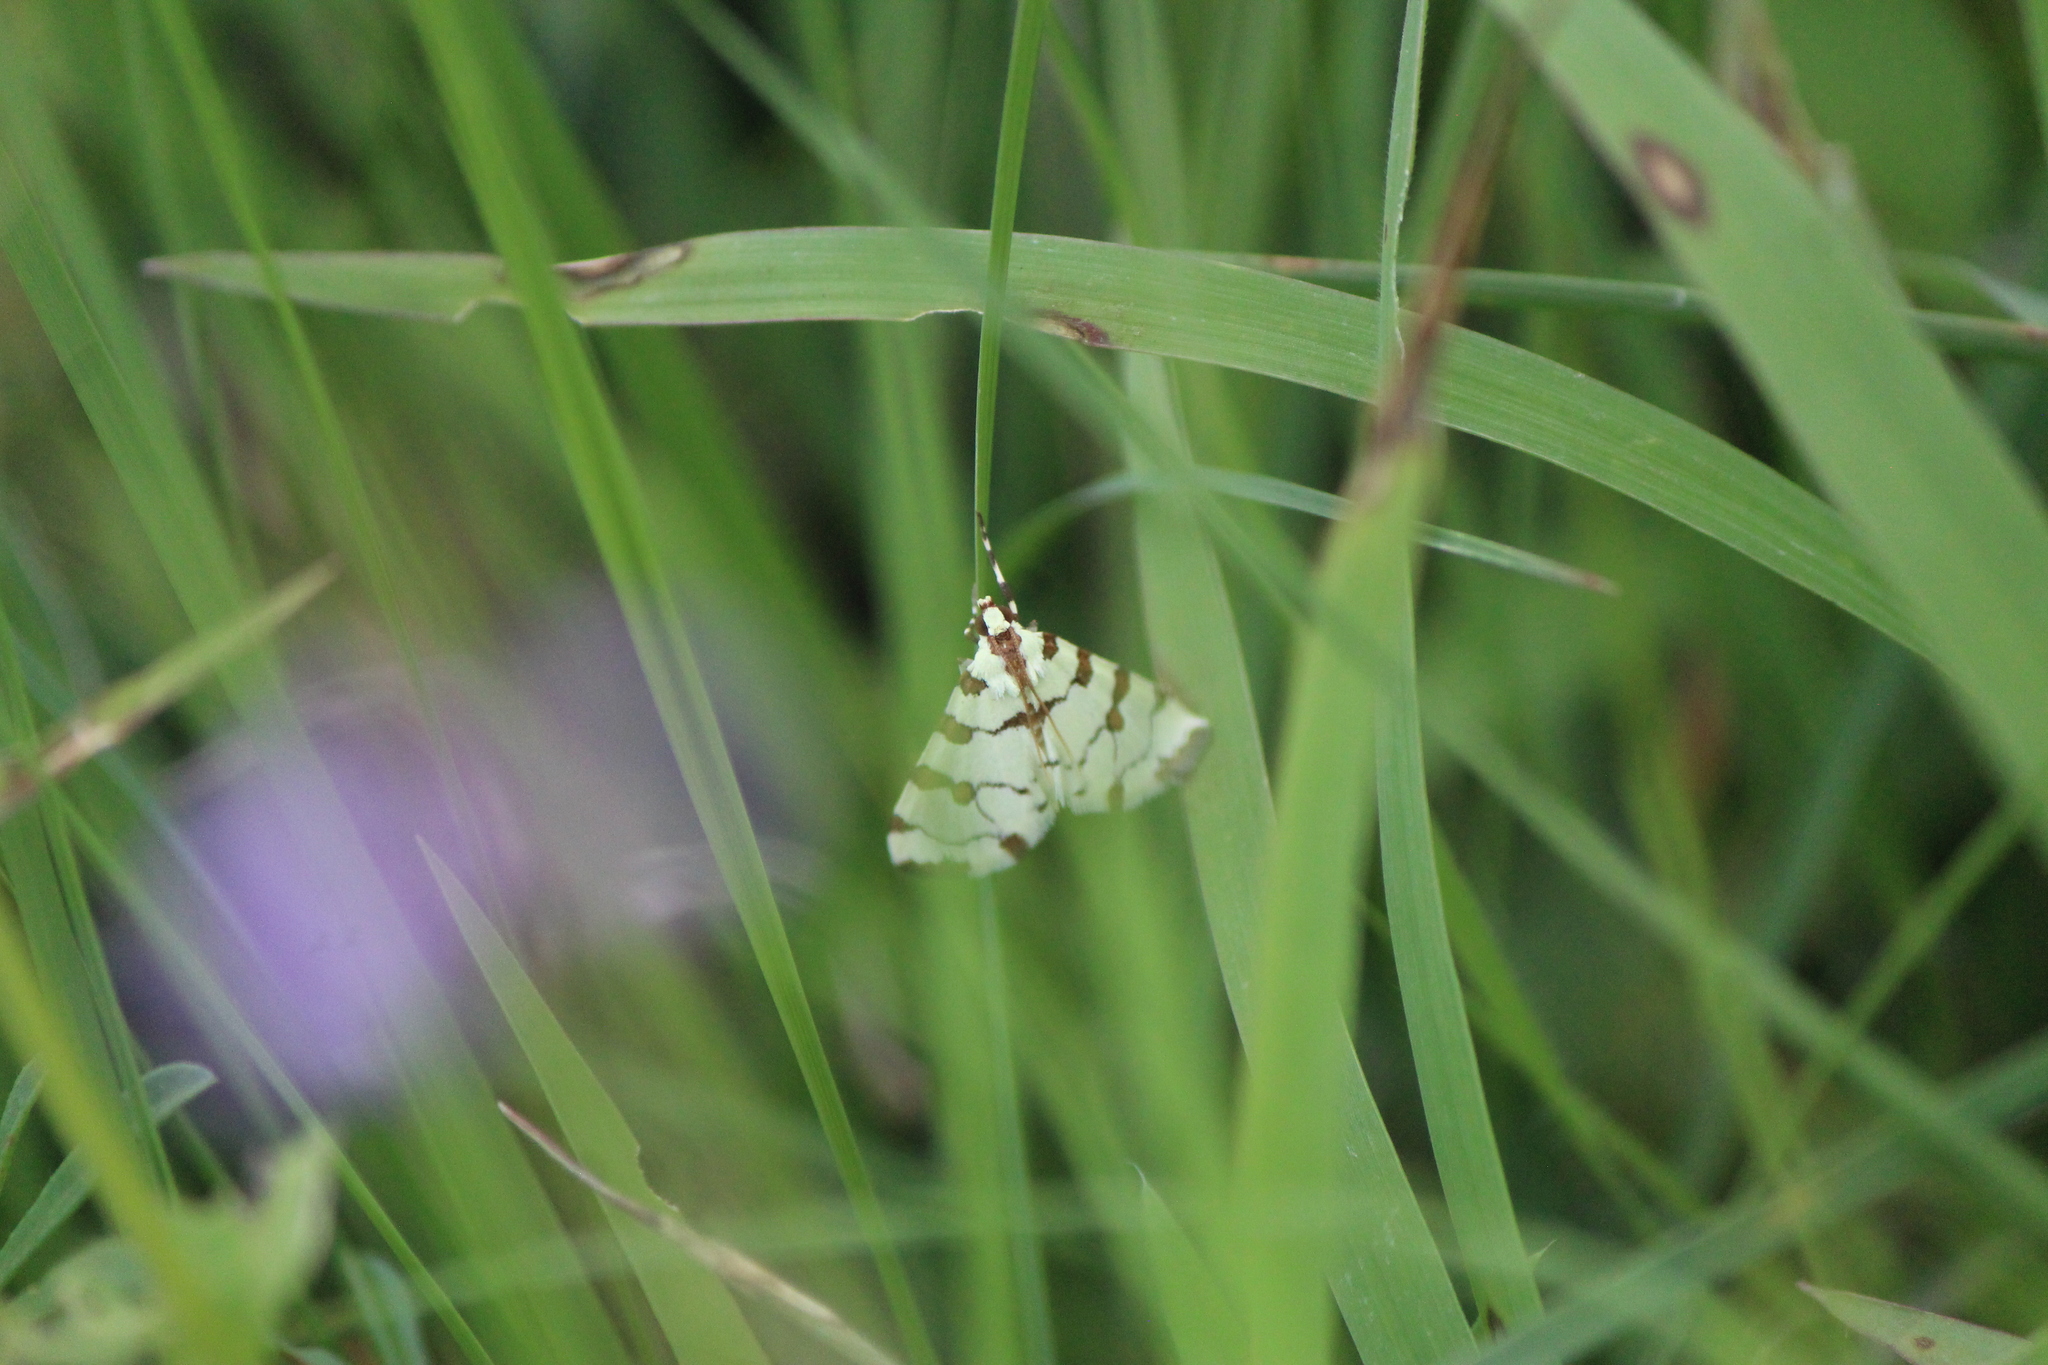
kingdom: Animalia
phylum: Arthropoda
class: Insecta
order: Lepidoptera
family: Crambidae
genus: Conchylodes
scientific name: Conchylodes
